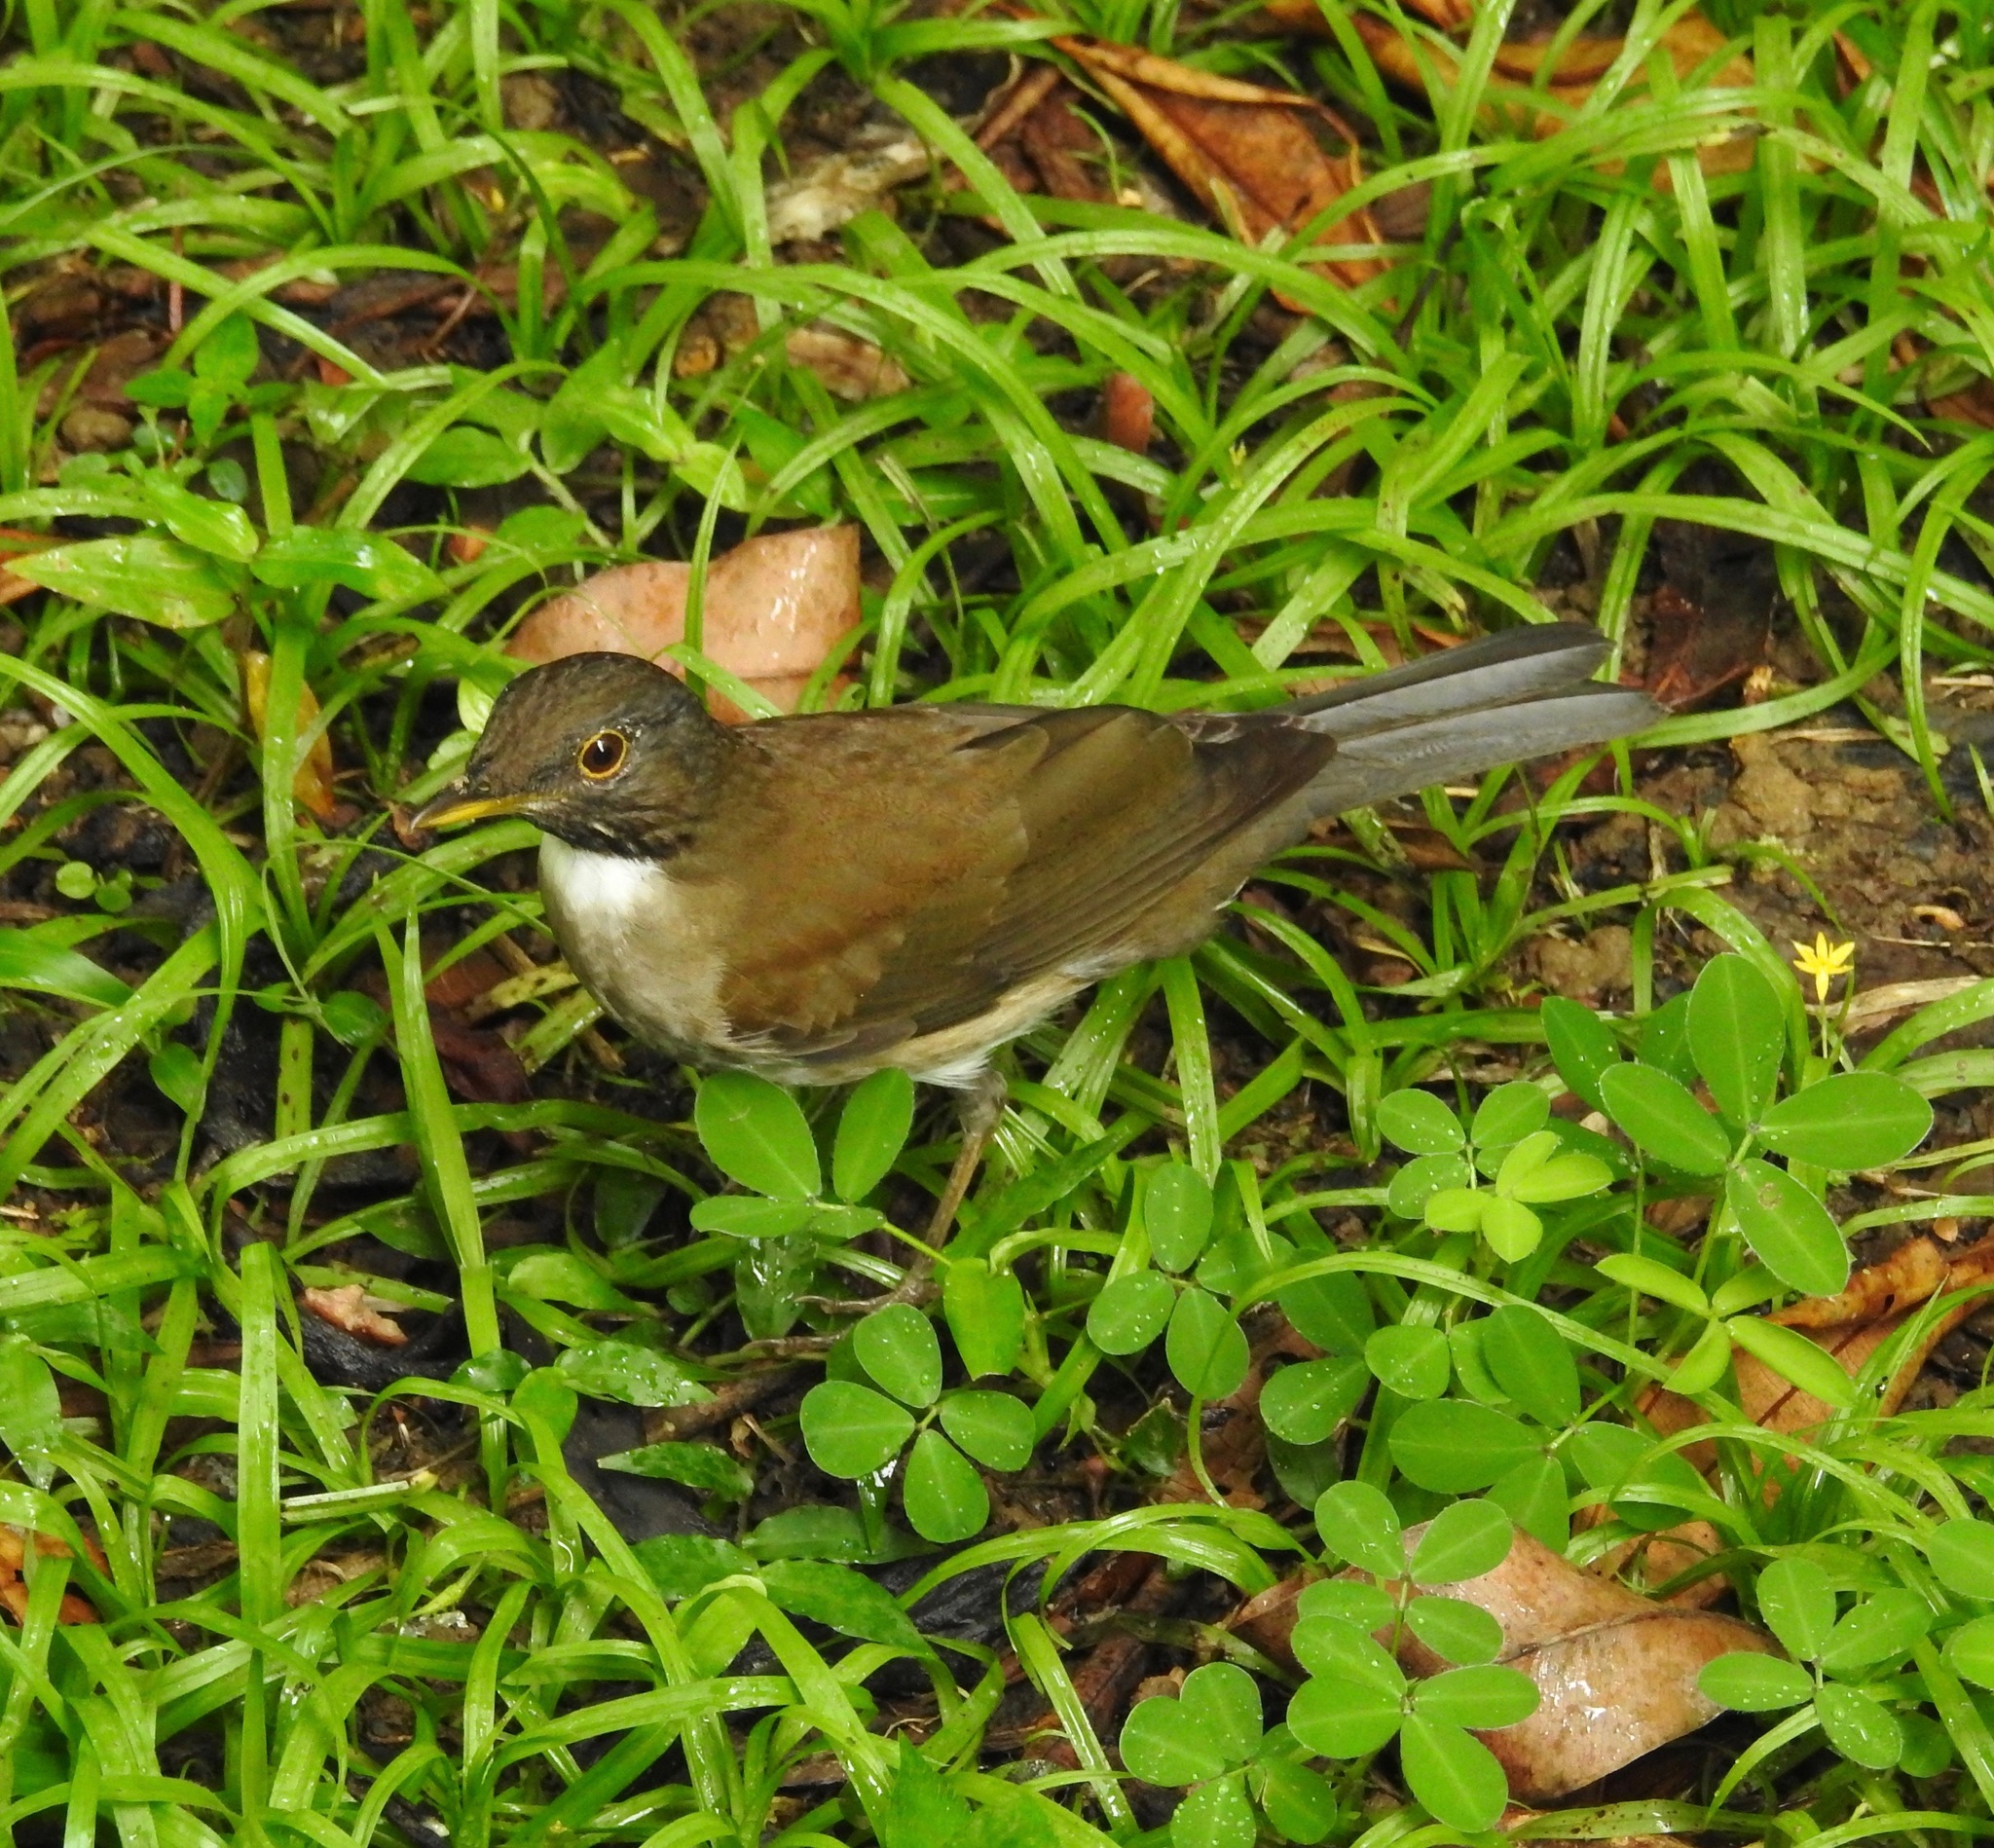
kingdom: Animalia
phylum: Chordata
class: Aves
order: Passeriformes
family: Turdidae
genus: Turdus
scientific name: Turdus albicollis
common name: White-necked thrush
